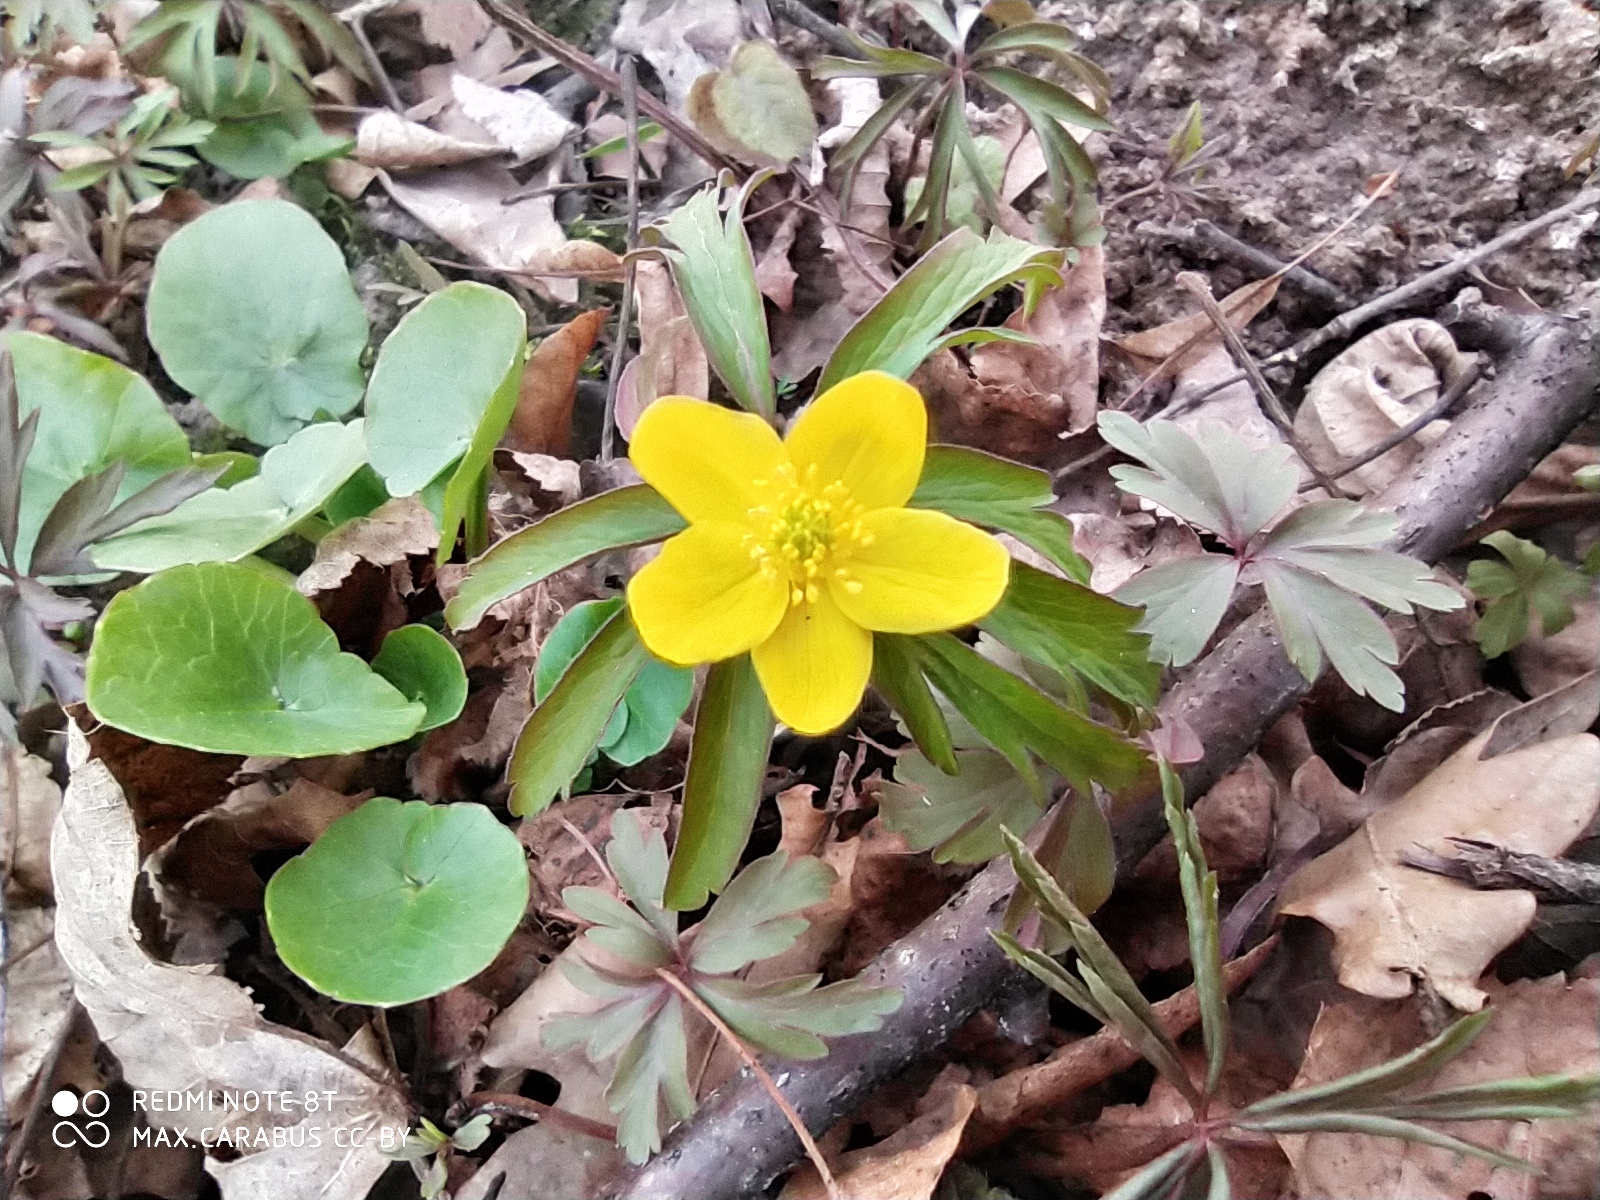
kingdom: Plantae
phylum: Tracheophyta
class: Magnoliopsida
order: Ranunculales
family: Ranunculaceae
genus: Anemone
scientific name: Anemone ranunculoides
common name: Yellow anemone
